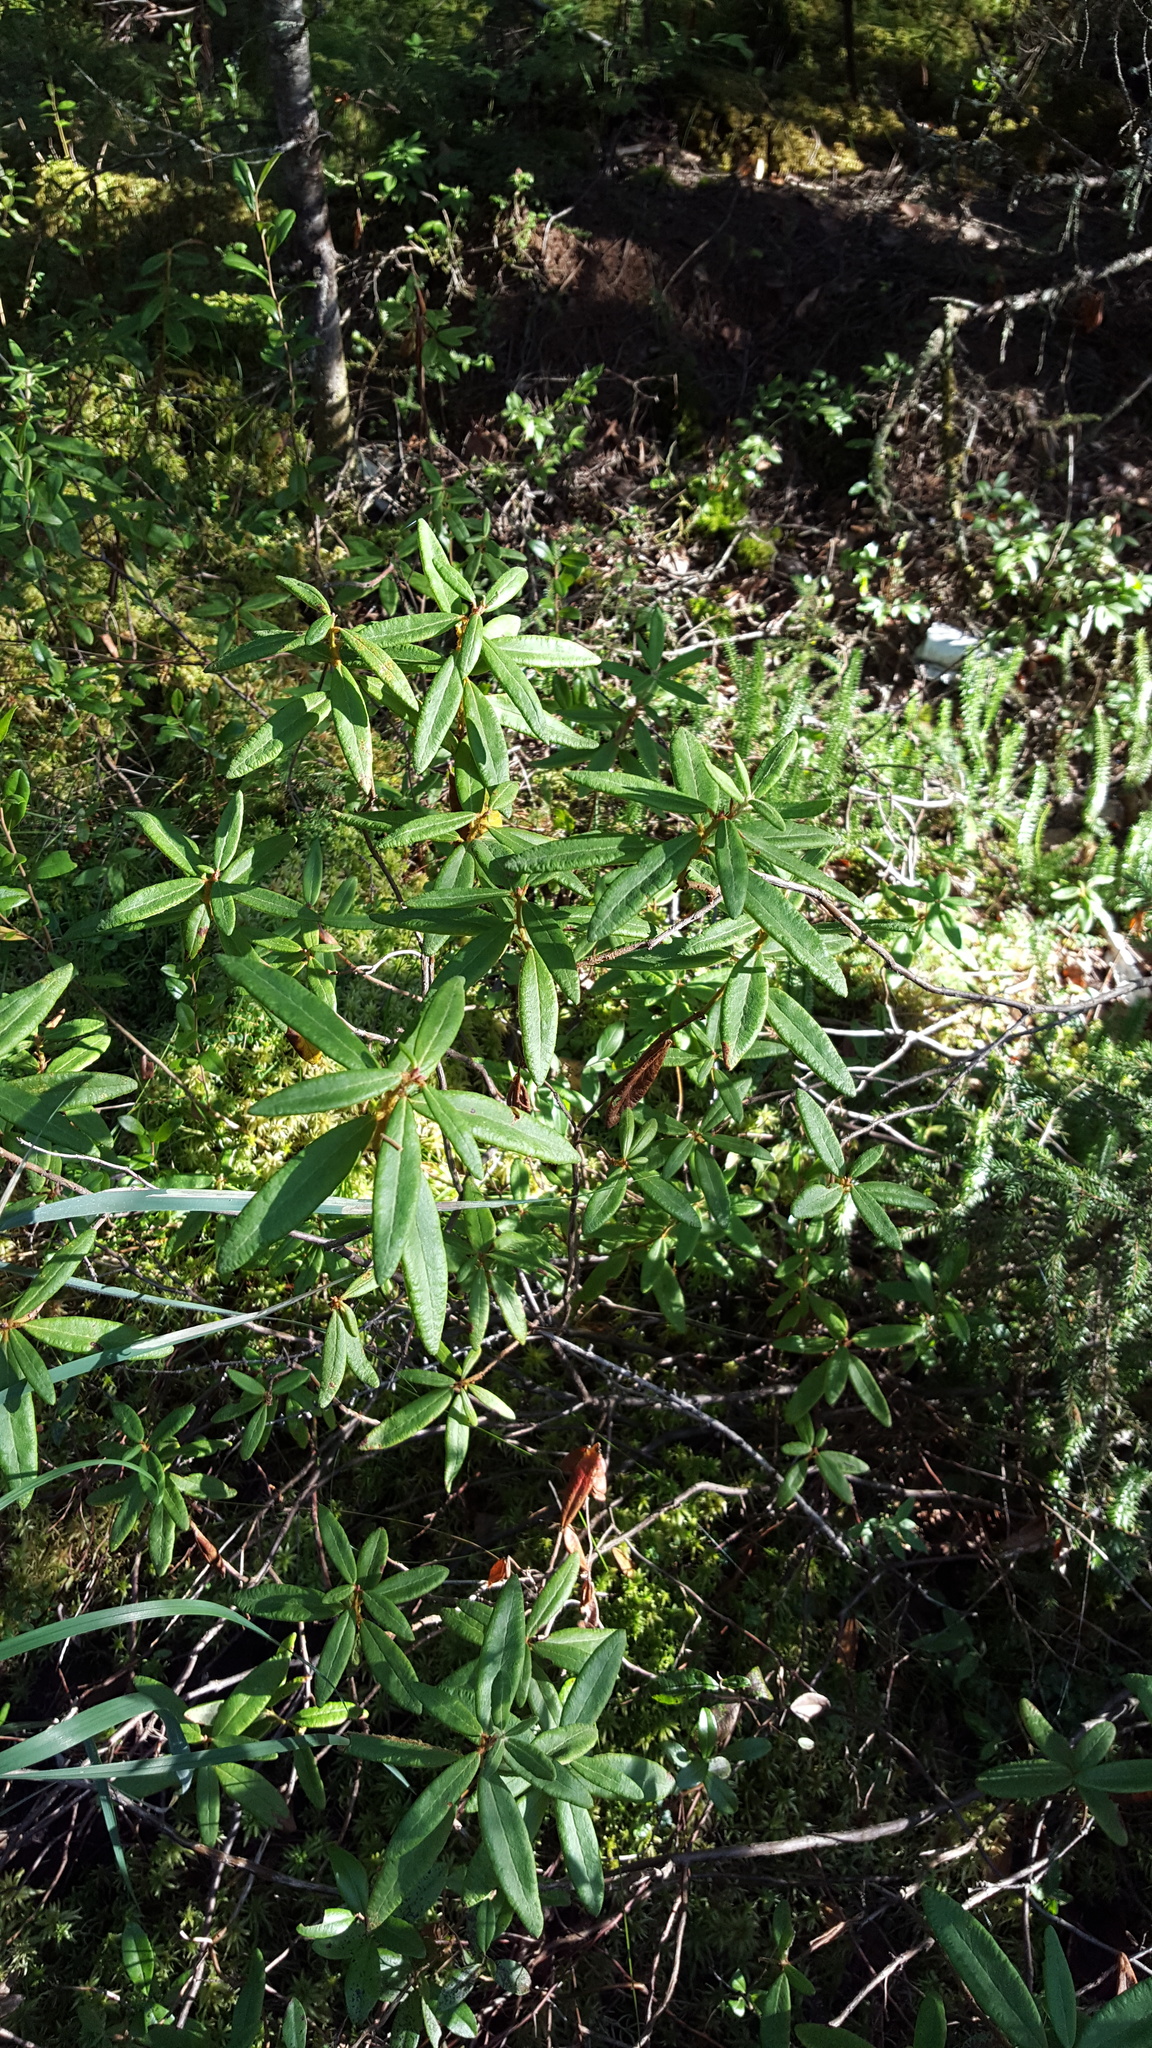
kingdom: Plantae
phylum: Tracheophyta
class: Magnoliopsida
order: Ericales
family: Ericaceae
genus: Rhododendron
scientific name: Rhododendron groenlandicum
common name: Bog labrador tea
